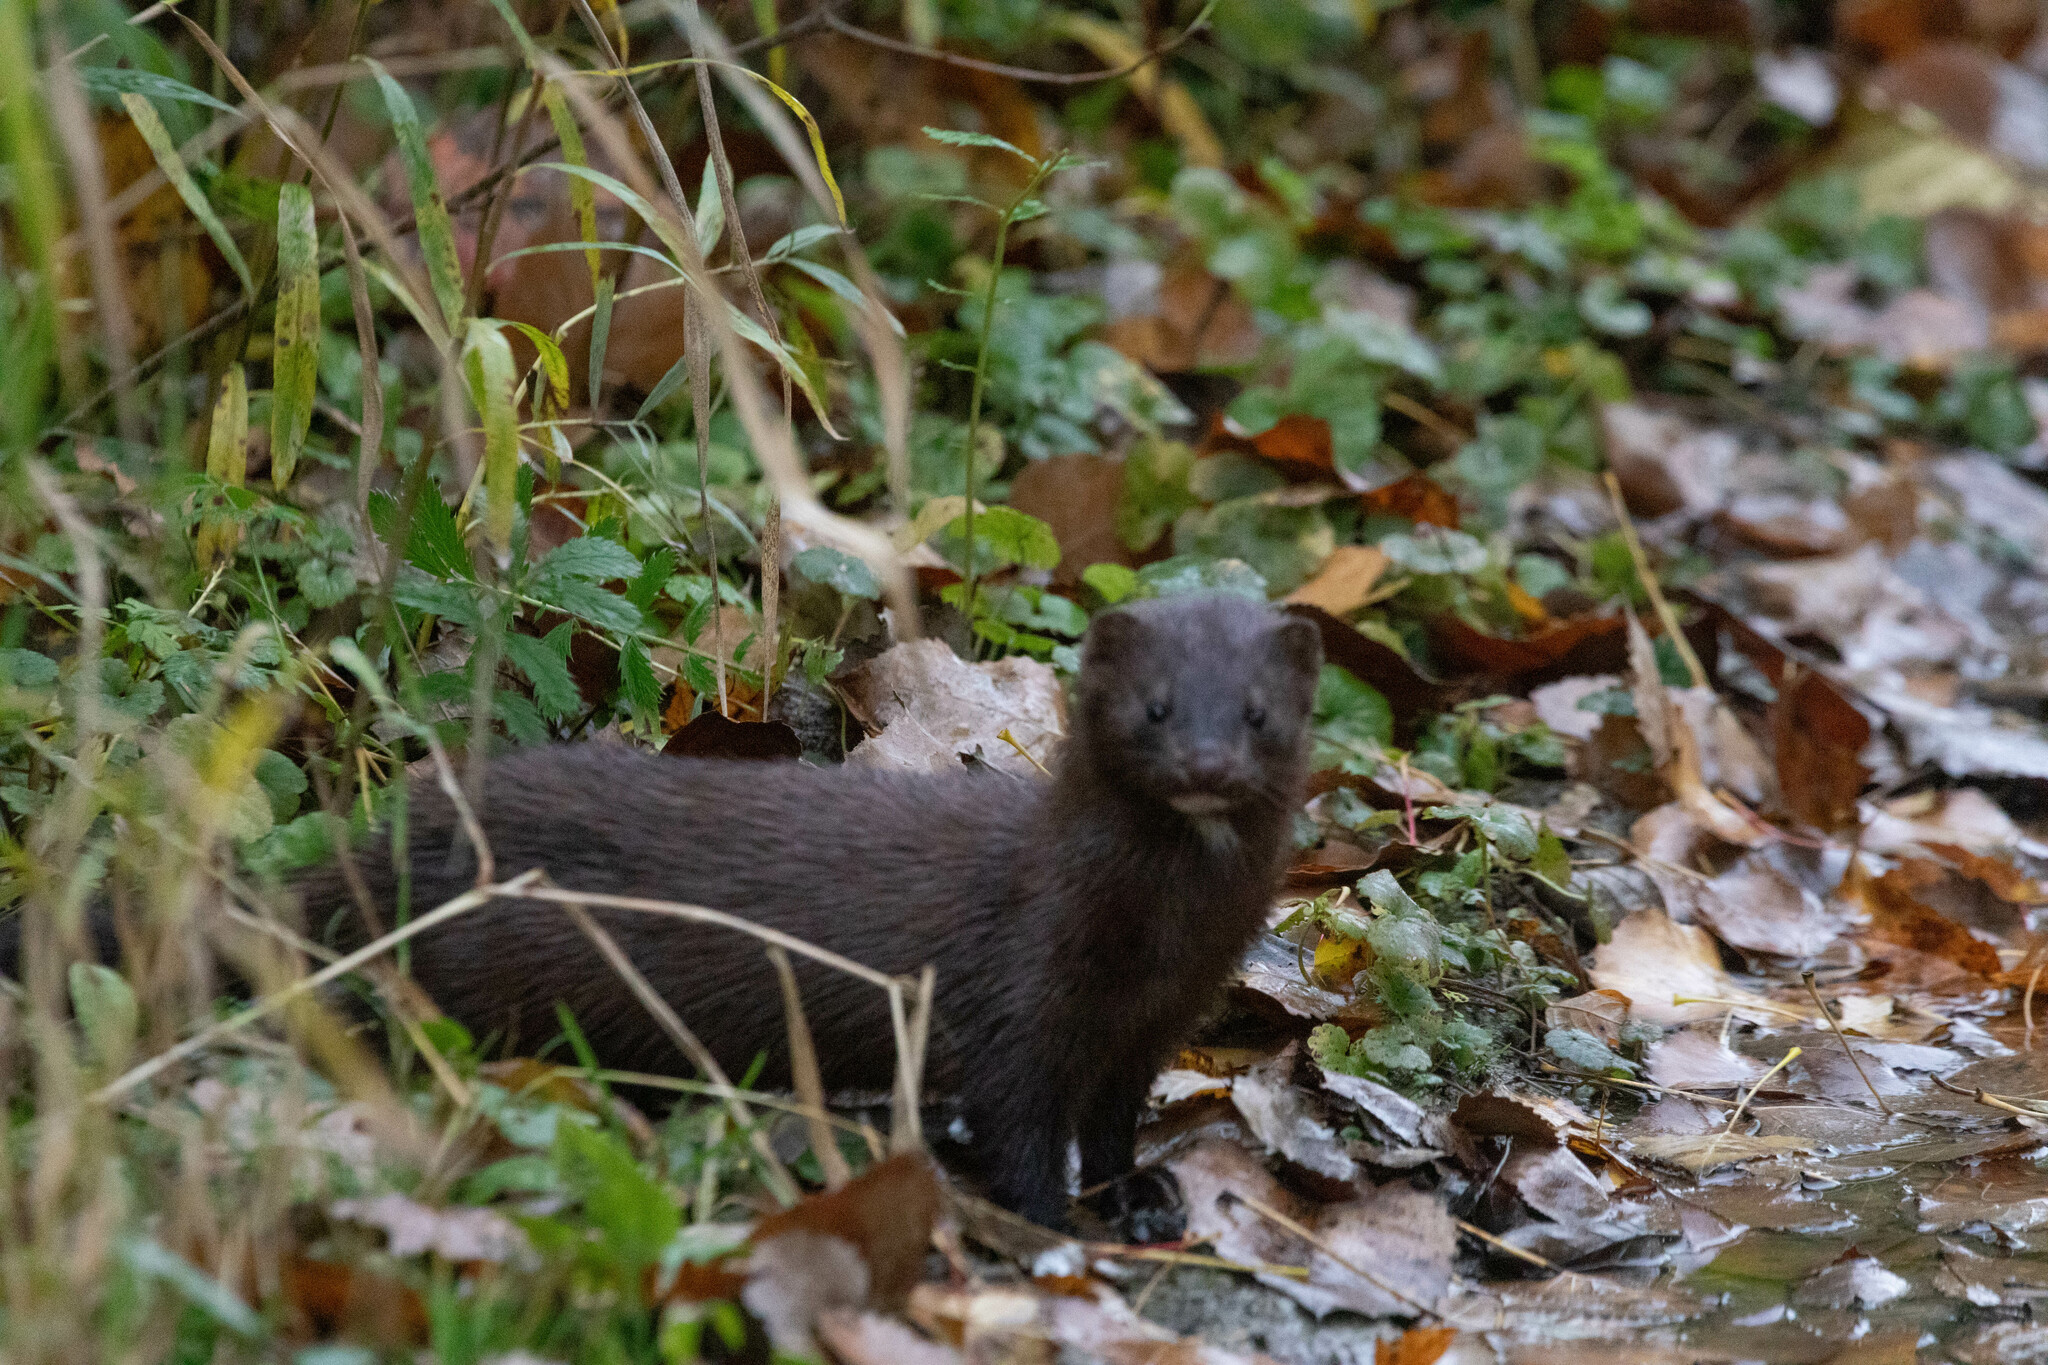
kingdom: Animalia
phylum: Chordata
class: Mammalia
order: Carnivora
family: Mustelidae
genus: Mustela
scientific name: Mustela
